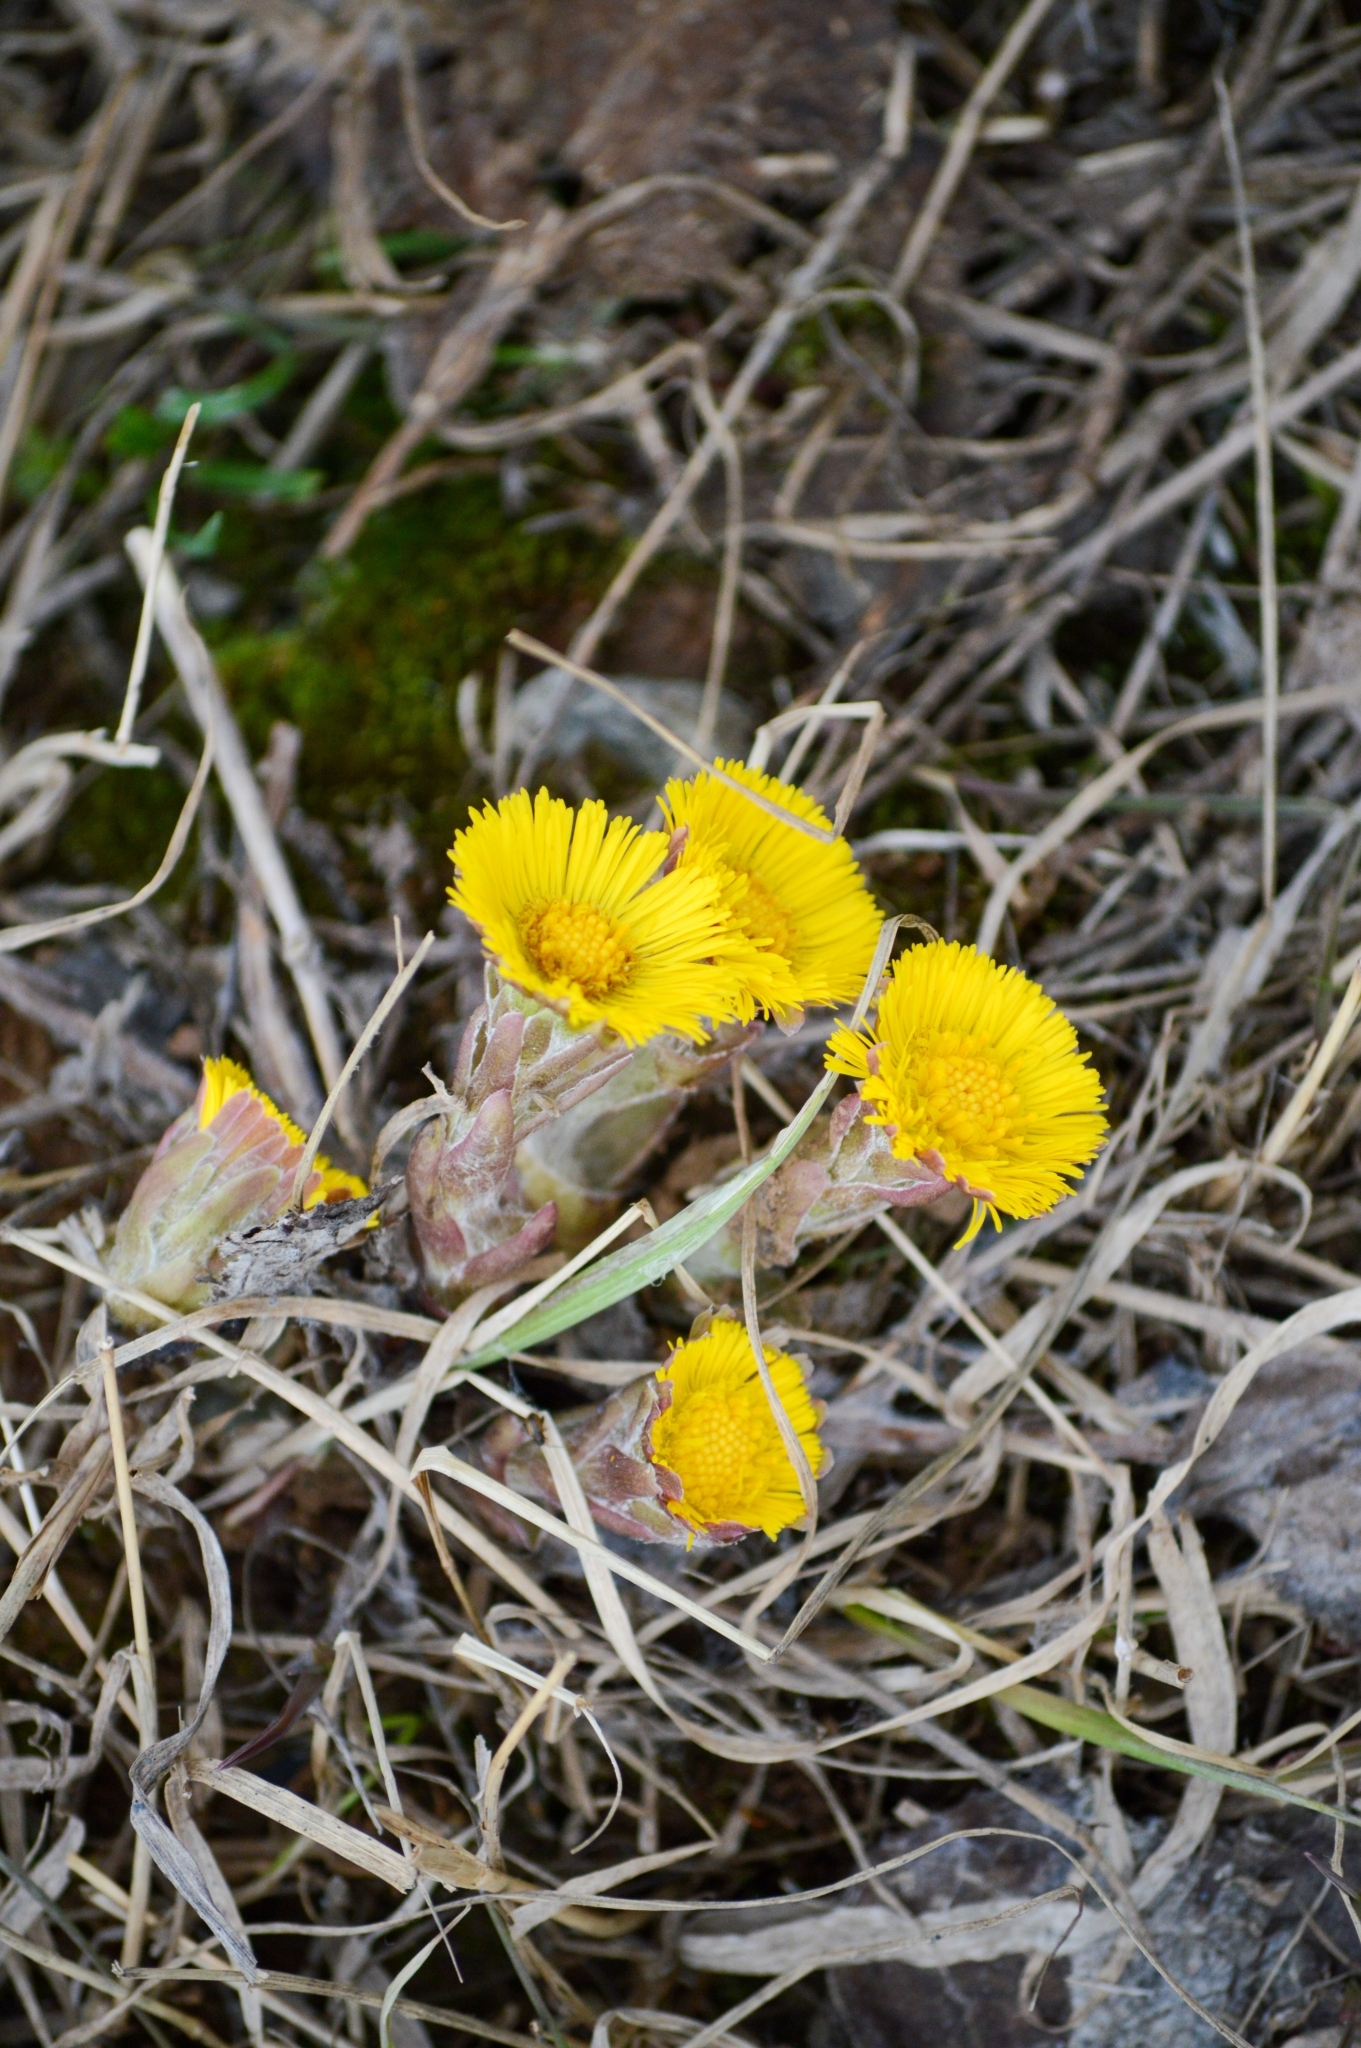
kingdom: Plantae
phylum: Tracheophyta
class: Magnoliopsida
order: Asterales
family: Asteraceae
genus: Tussilago
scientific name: Tussilago farfara
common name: Coltsfoot
